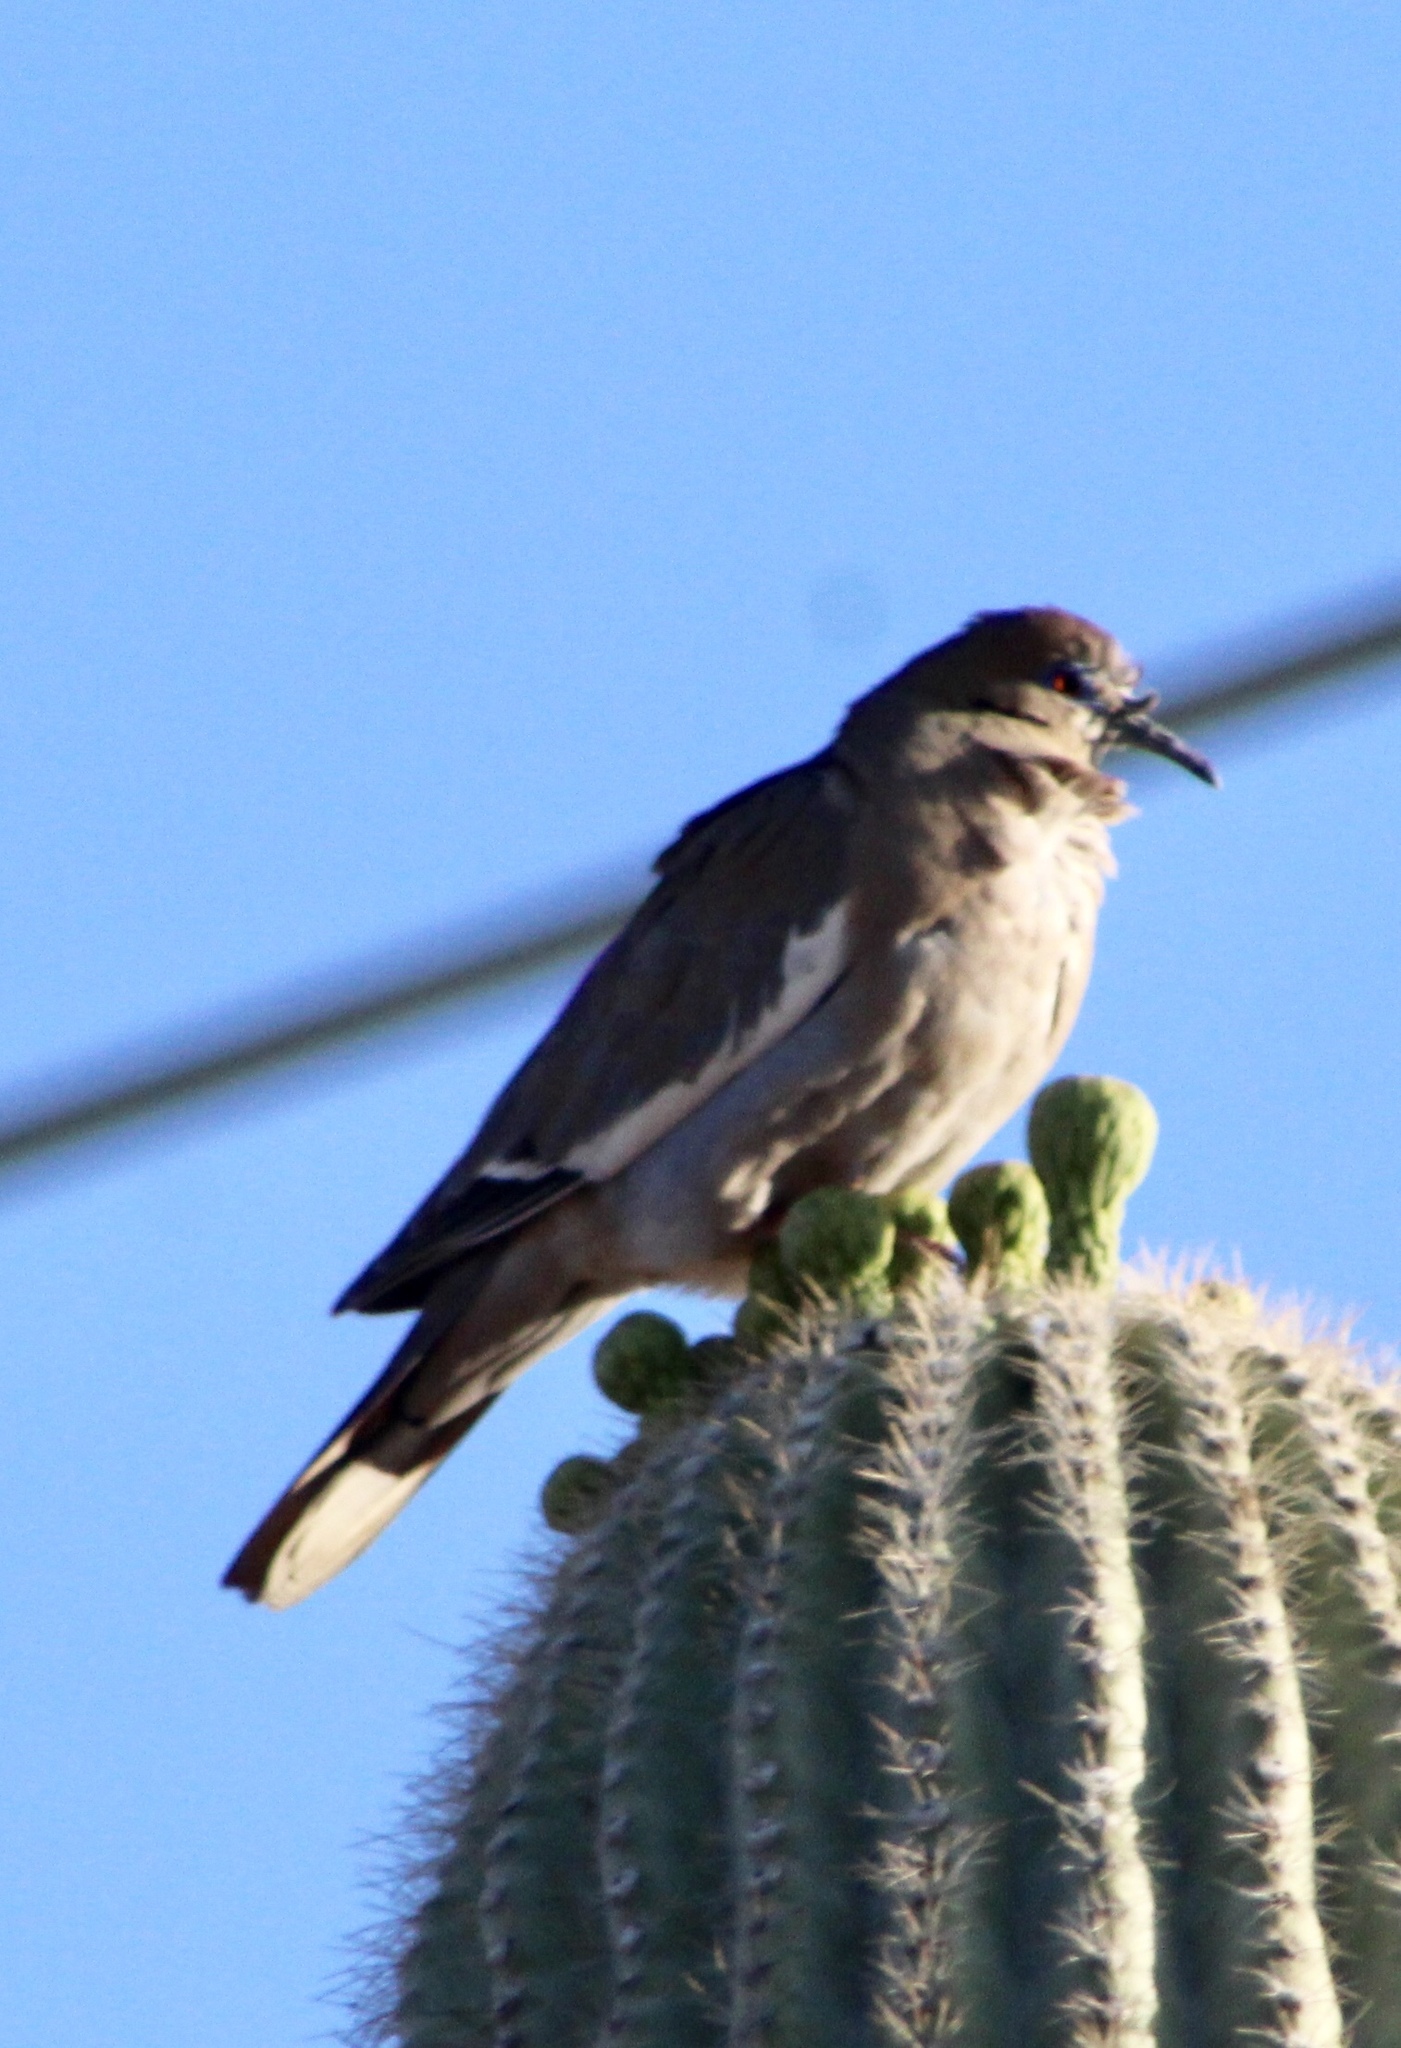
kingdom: Animalia
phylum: Chordata
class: Aves
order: Columbiformes
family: Columbidae
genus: Zenaida
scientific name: Zenaida asiatica
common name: White-winged dove
